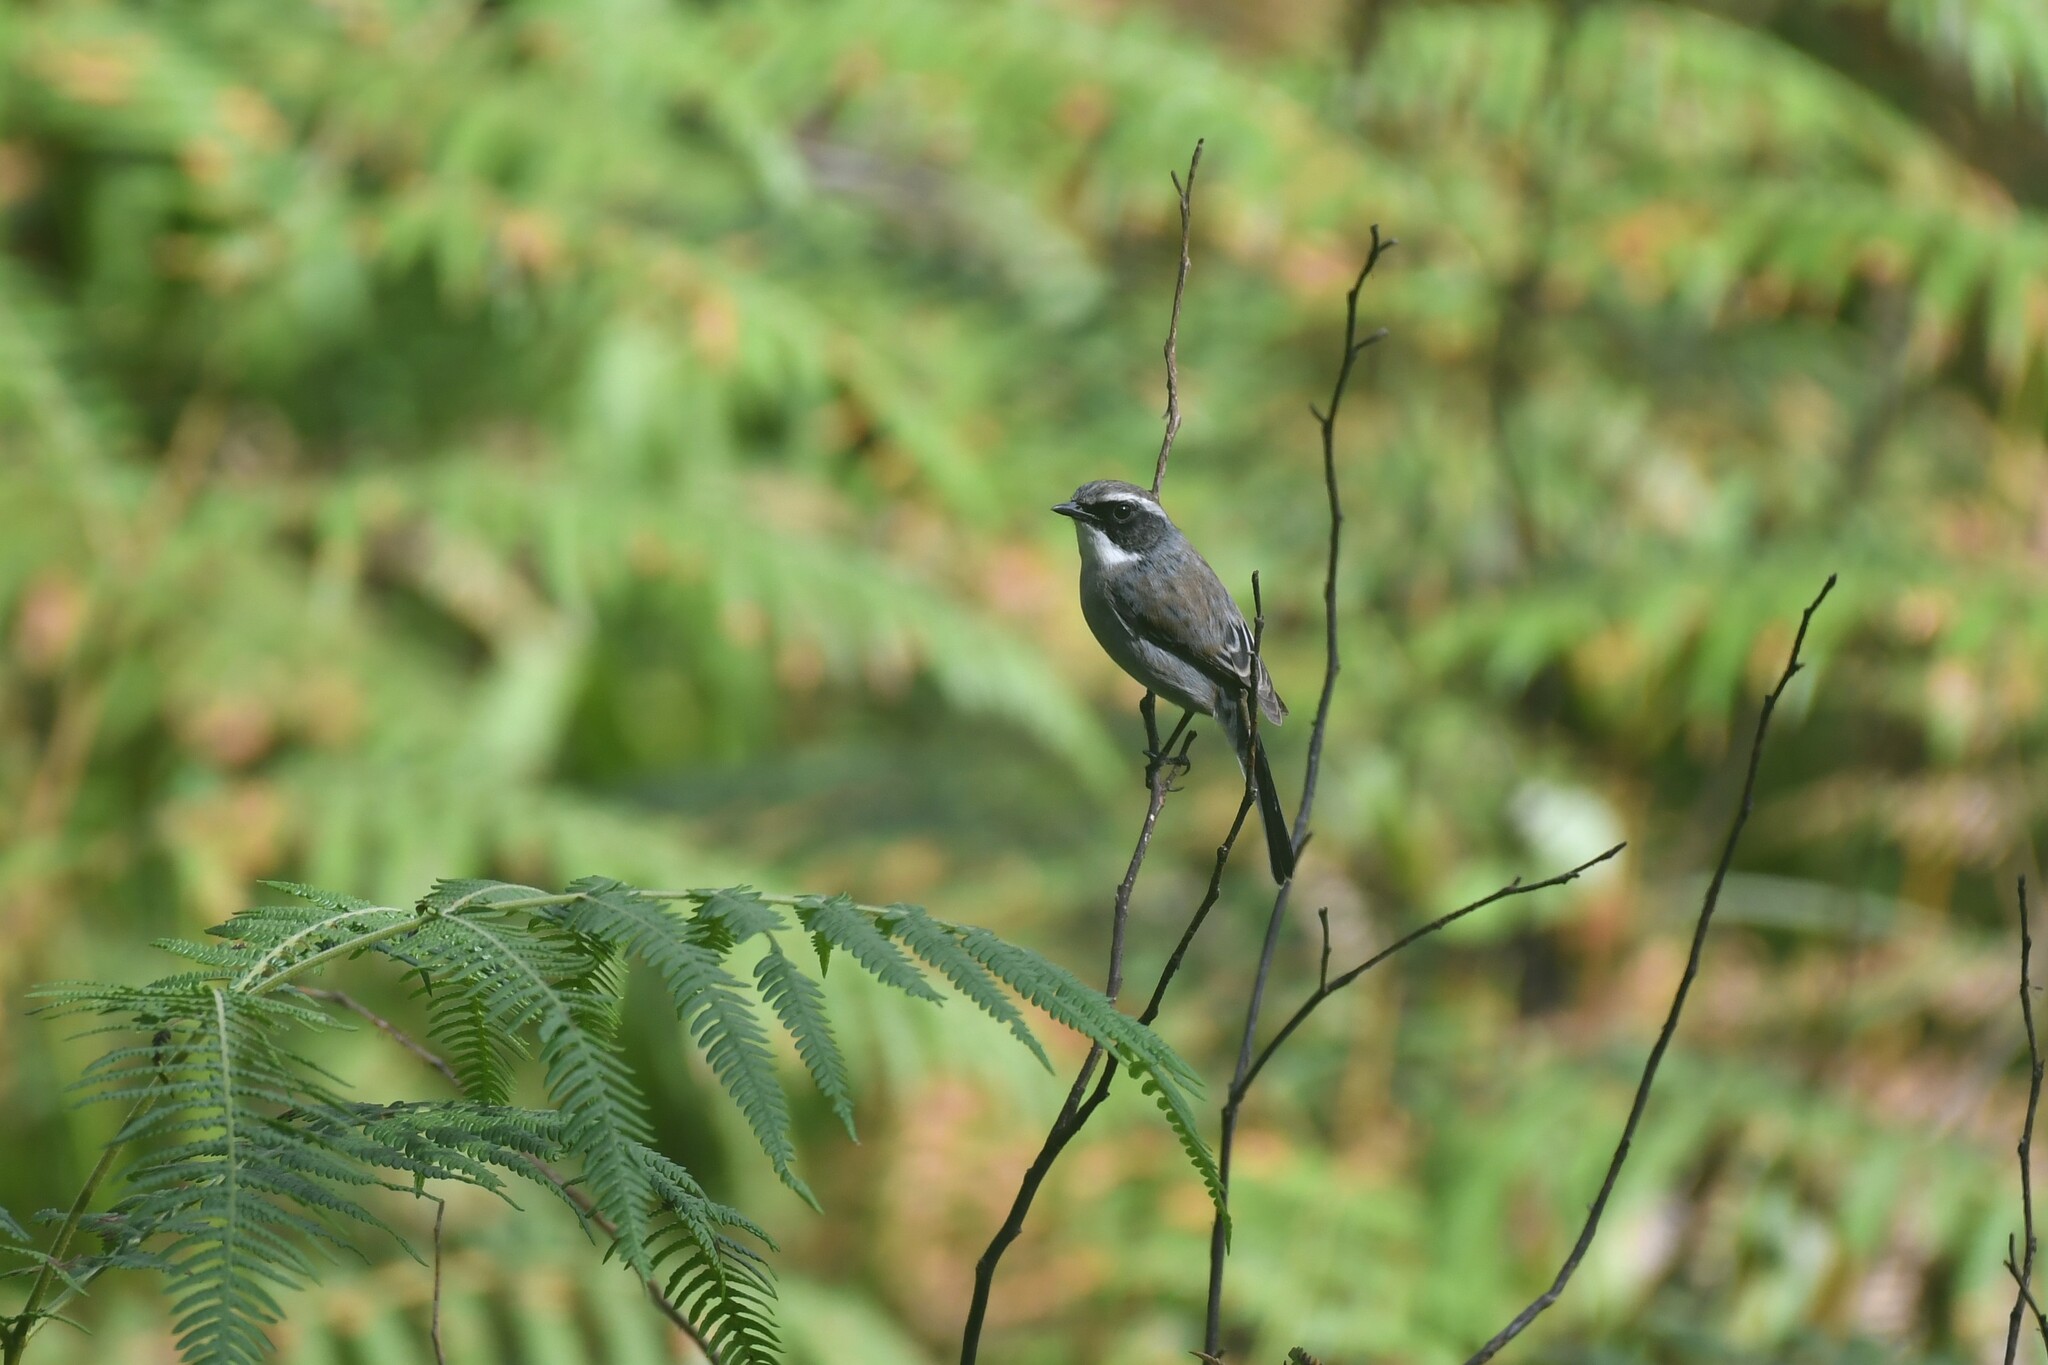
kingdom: Animalia
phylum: Chordata
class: Aves
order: Passeriformes
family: Muscicapidae
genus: Saxicola
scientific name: Saxicola ferreus
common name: Grey bush chat
